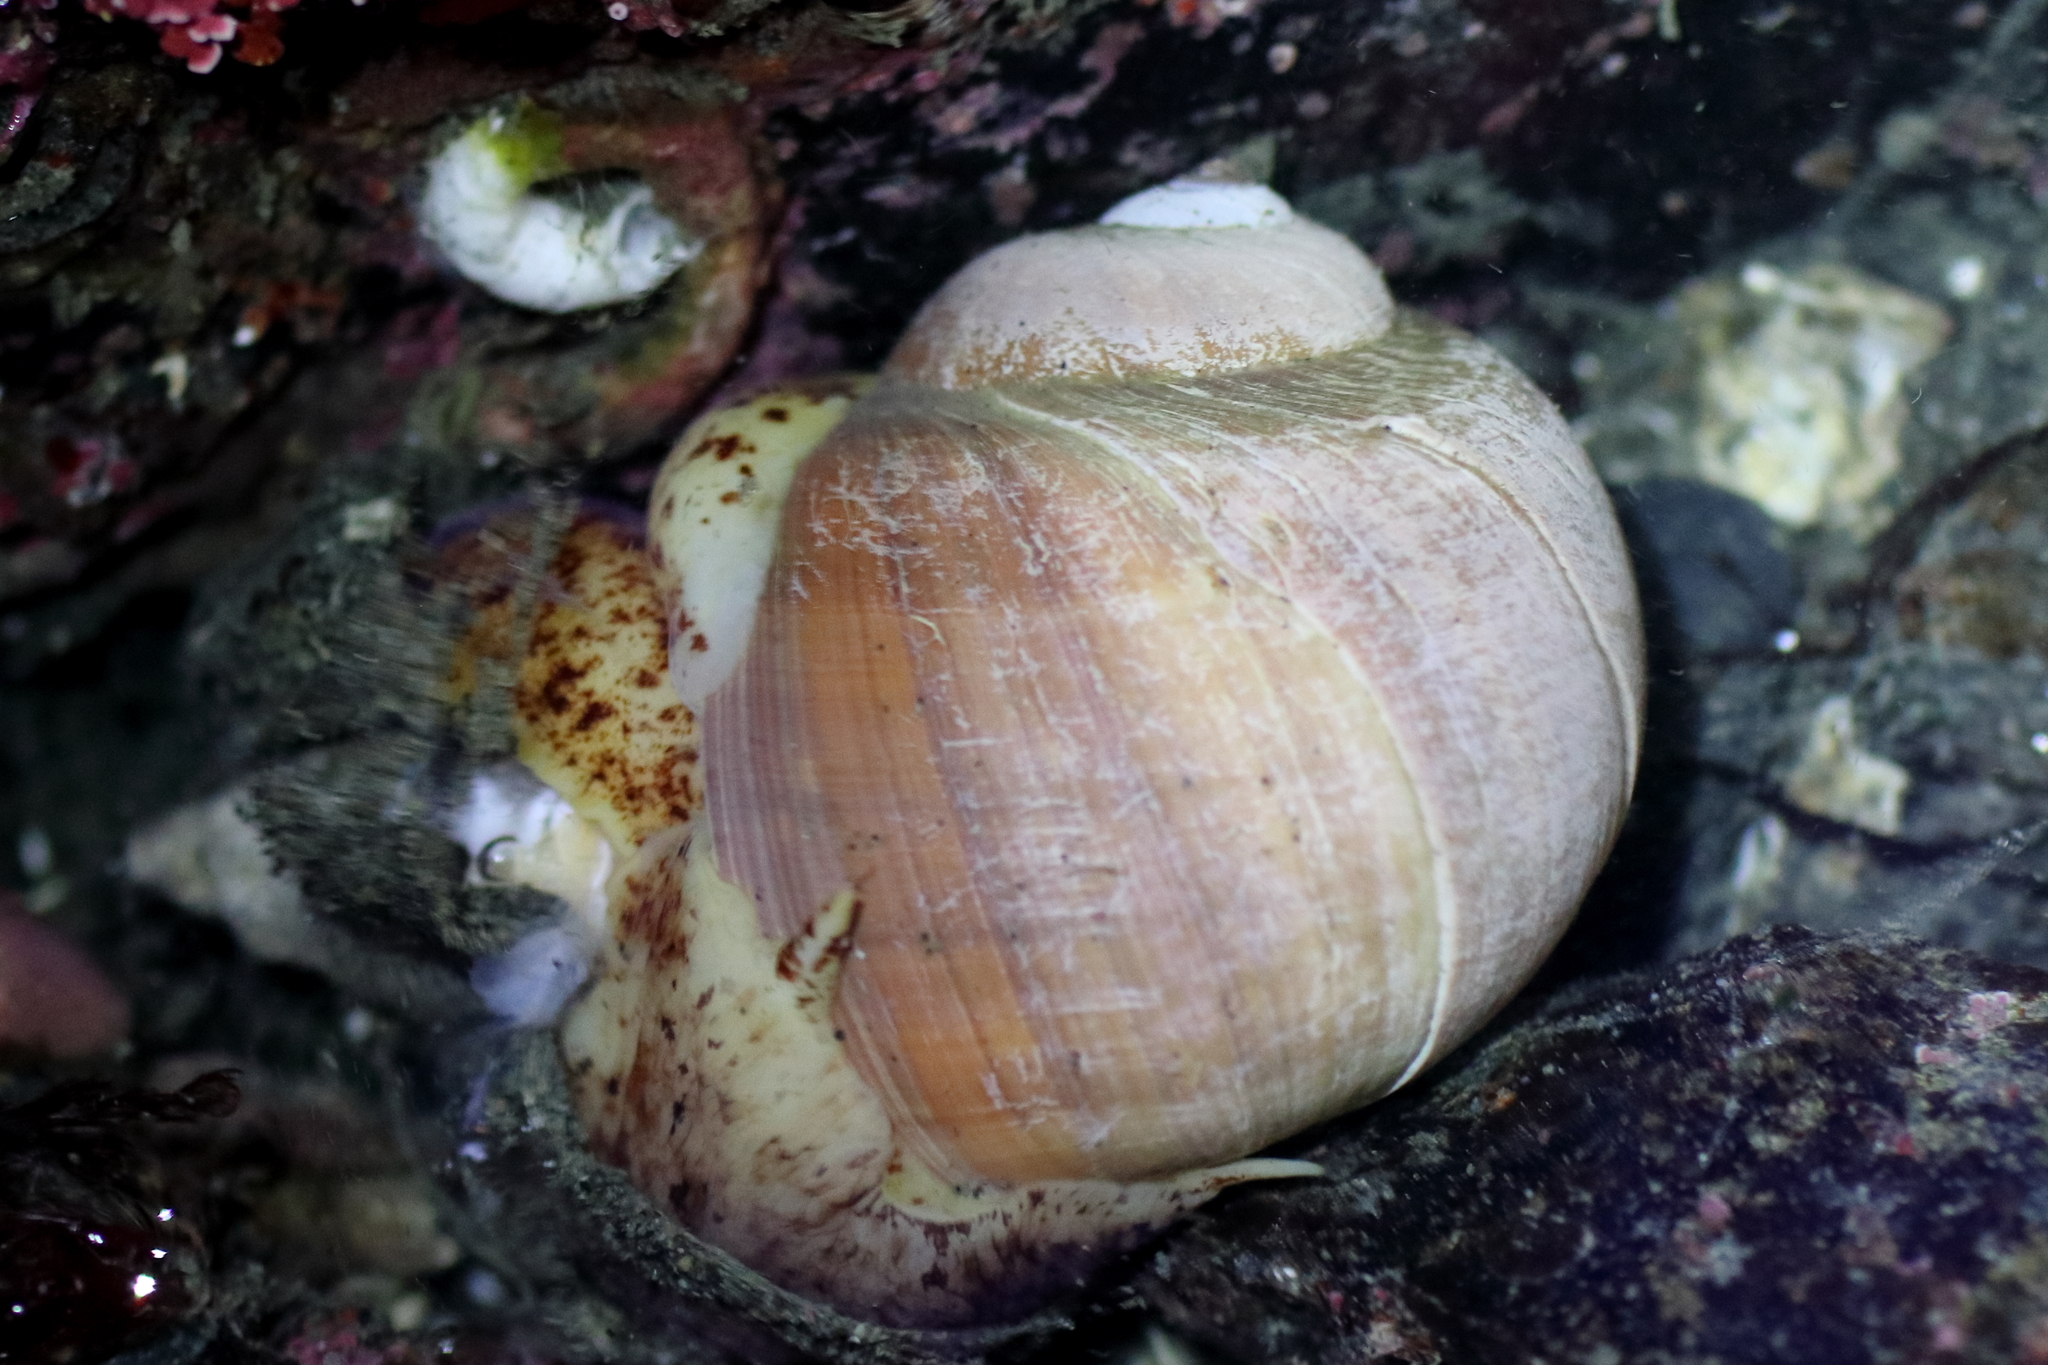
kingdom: Animalia
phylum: Mollusca
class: Gastropoda
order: Littorinimorpha
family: Naticidae
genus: Cryptonatica
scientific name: Cryptonatica aleutica
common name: Aleutian moon snail
